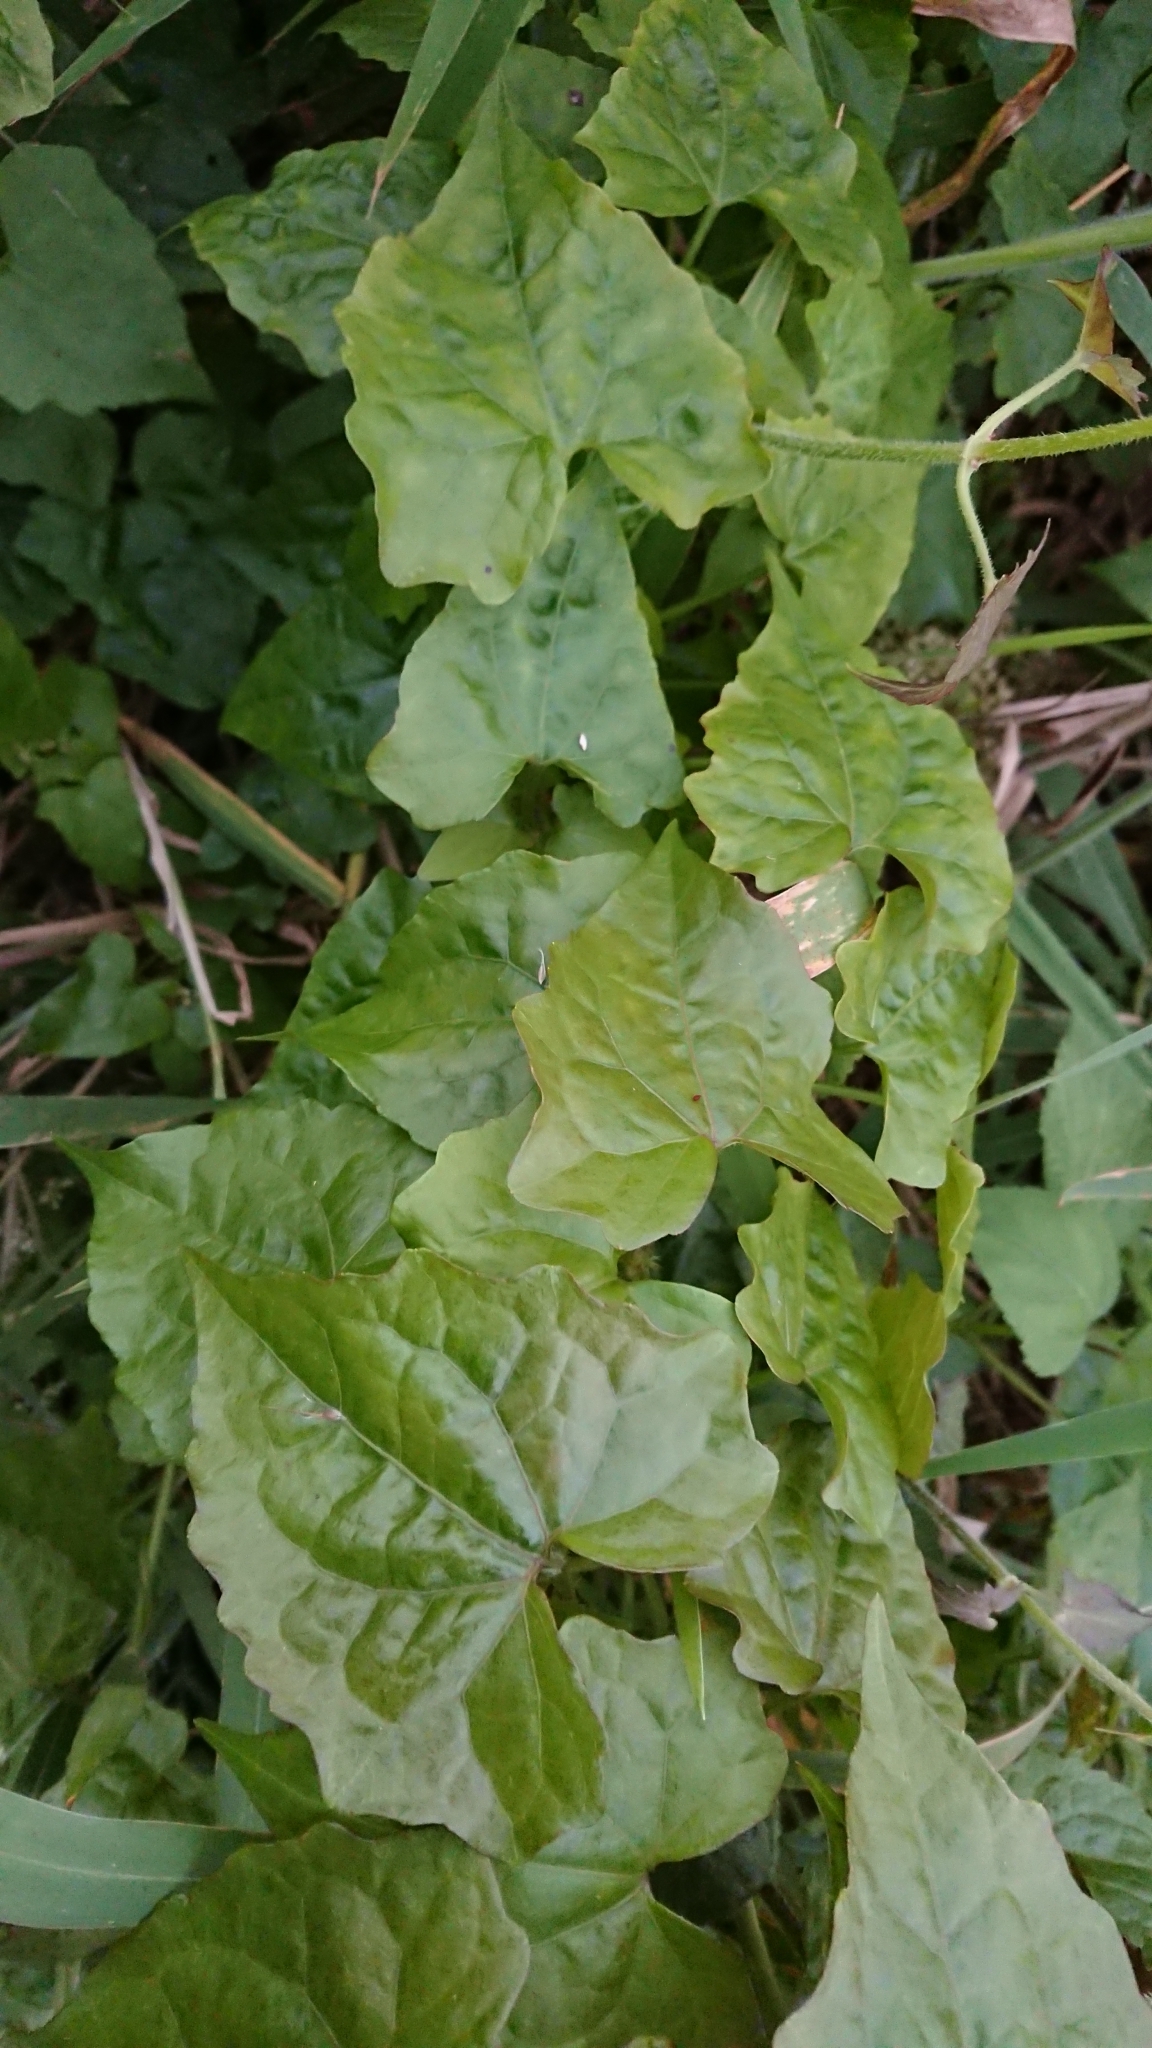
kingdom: Plantae
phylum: Tracheophyta
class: Magnoliopsida
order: Asterales
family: Asteraceae
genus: Mikania
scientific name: Mikania micrantha
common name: Mile-a-minute
